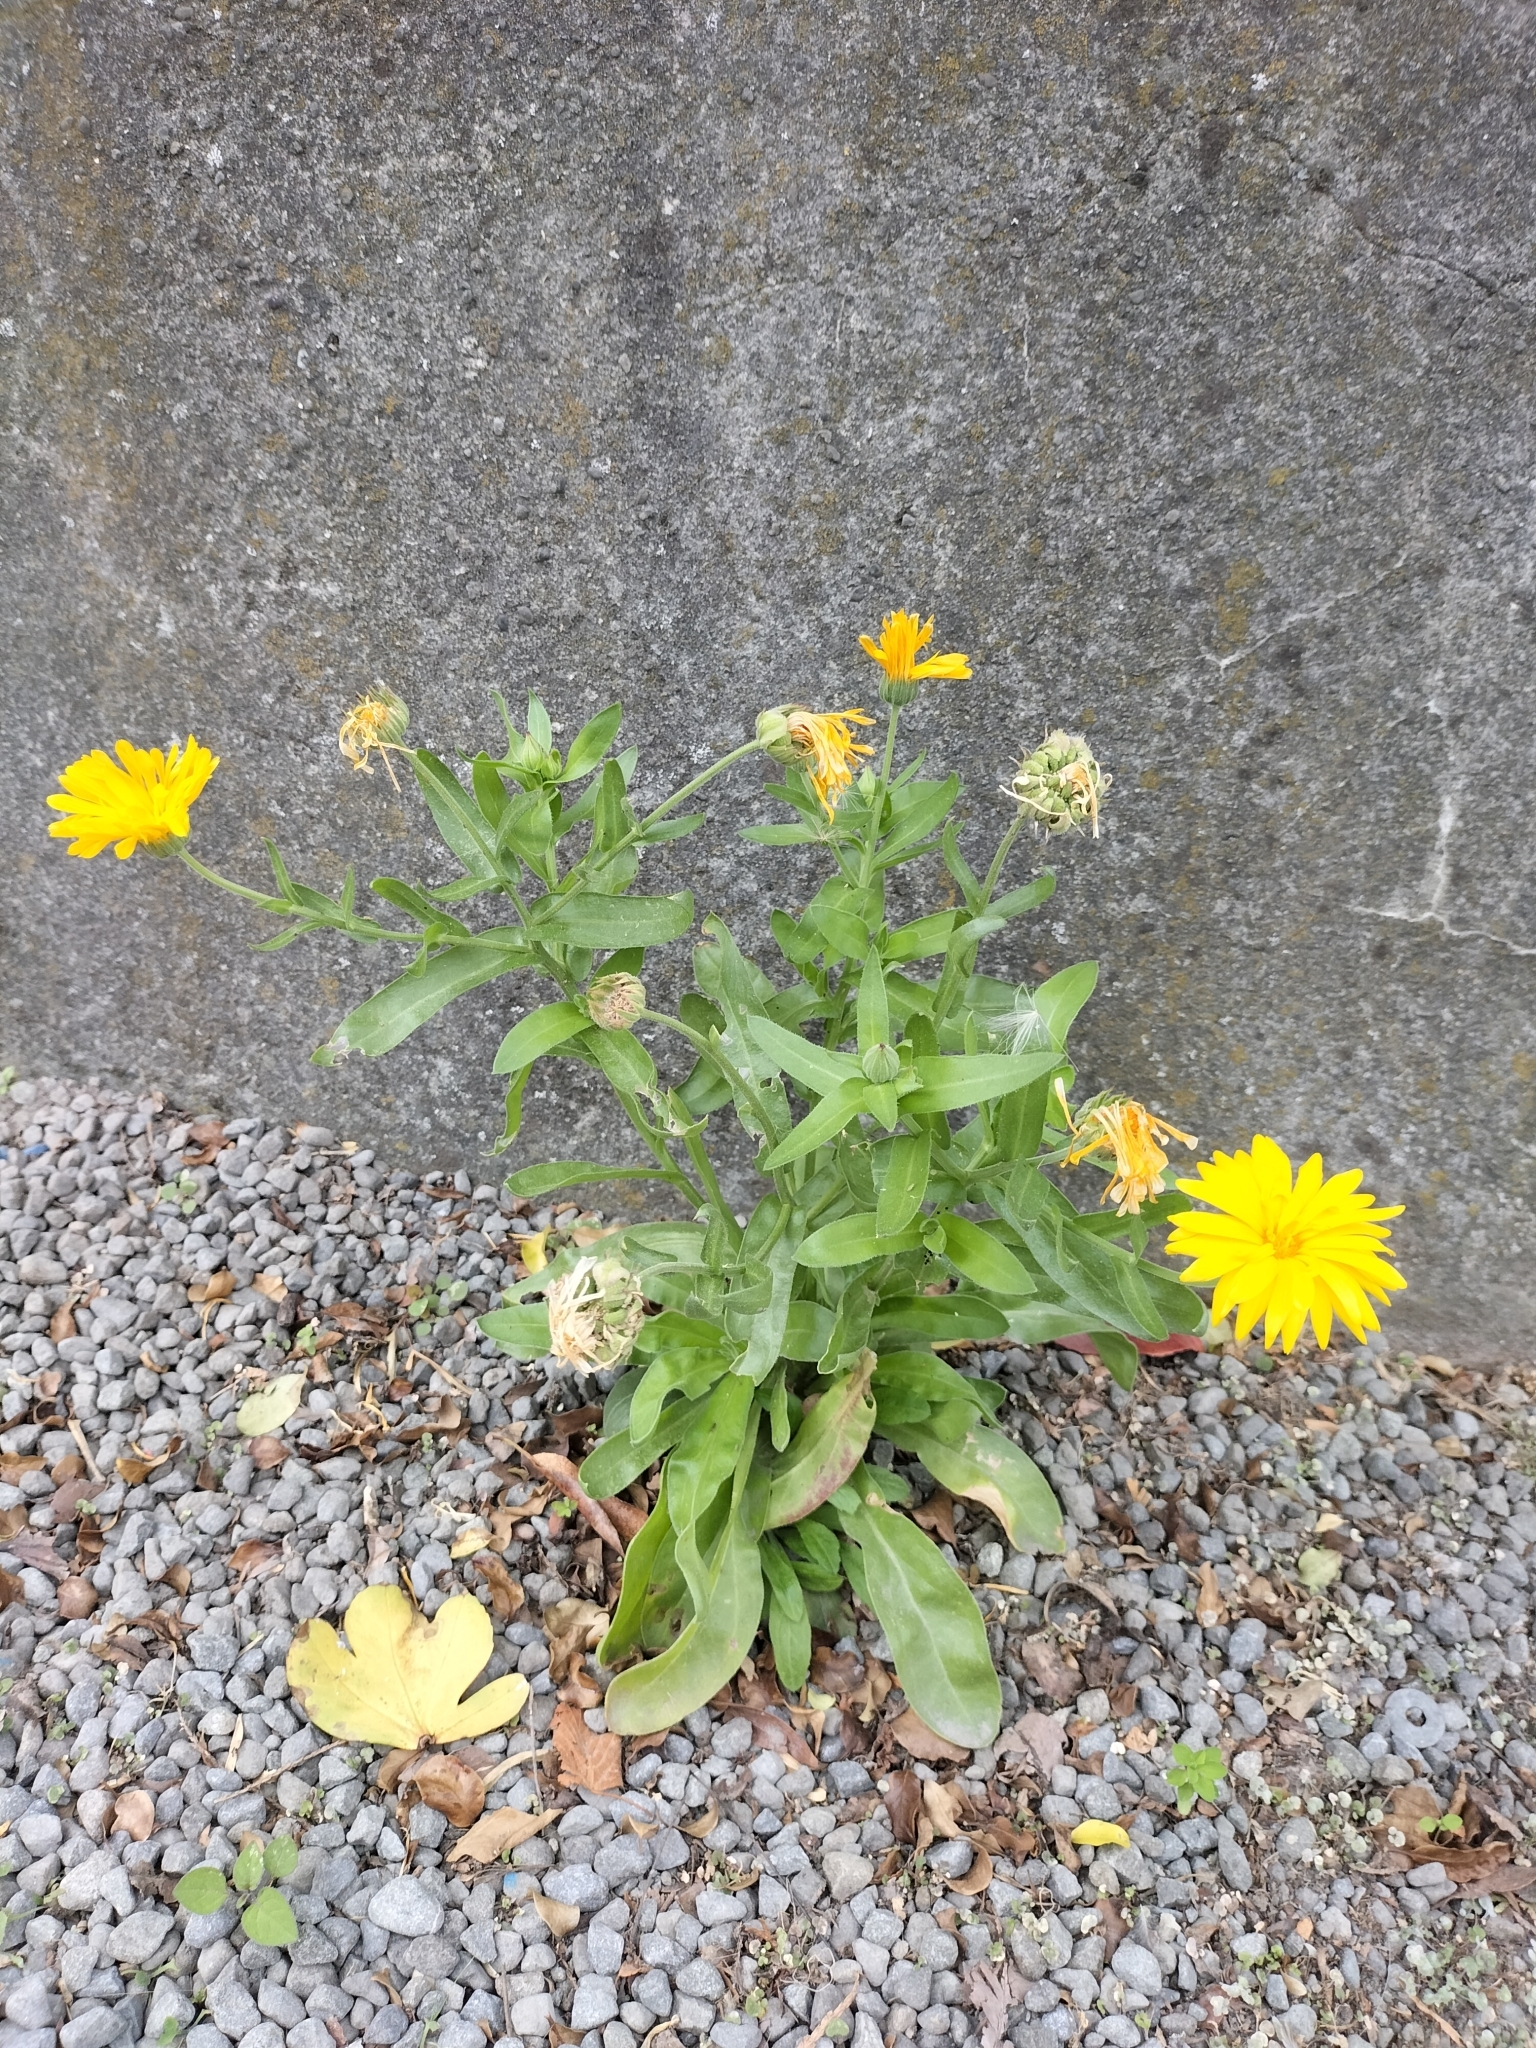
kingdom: Plantae
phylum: Tracheophyta
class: Magnoliopsida
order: Asterales
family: Asteraceae
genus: Calendula
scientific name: Calendula officinalis
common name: Pot marigold
